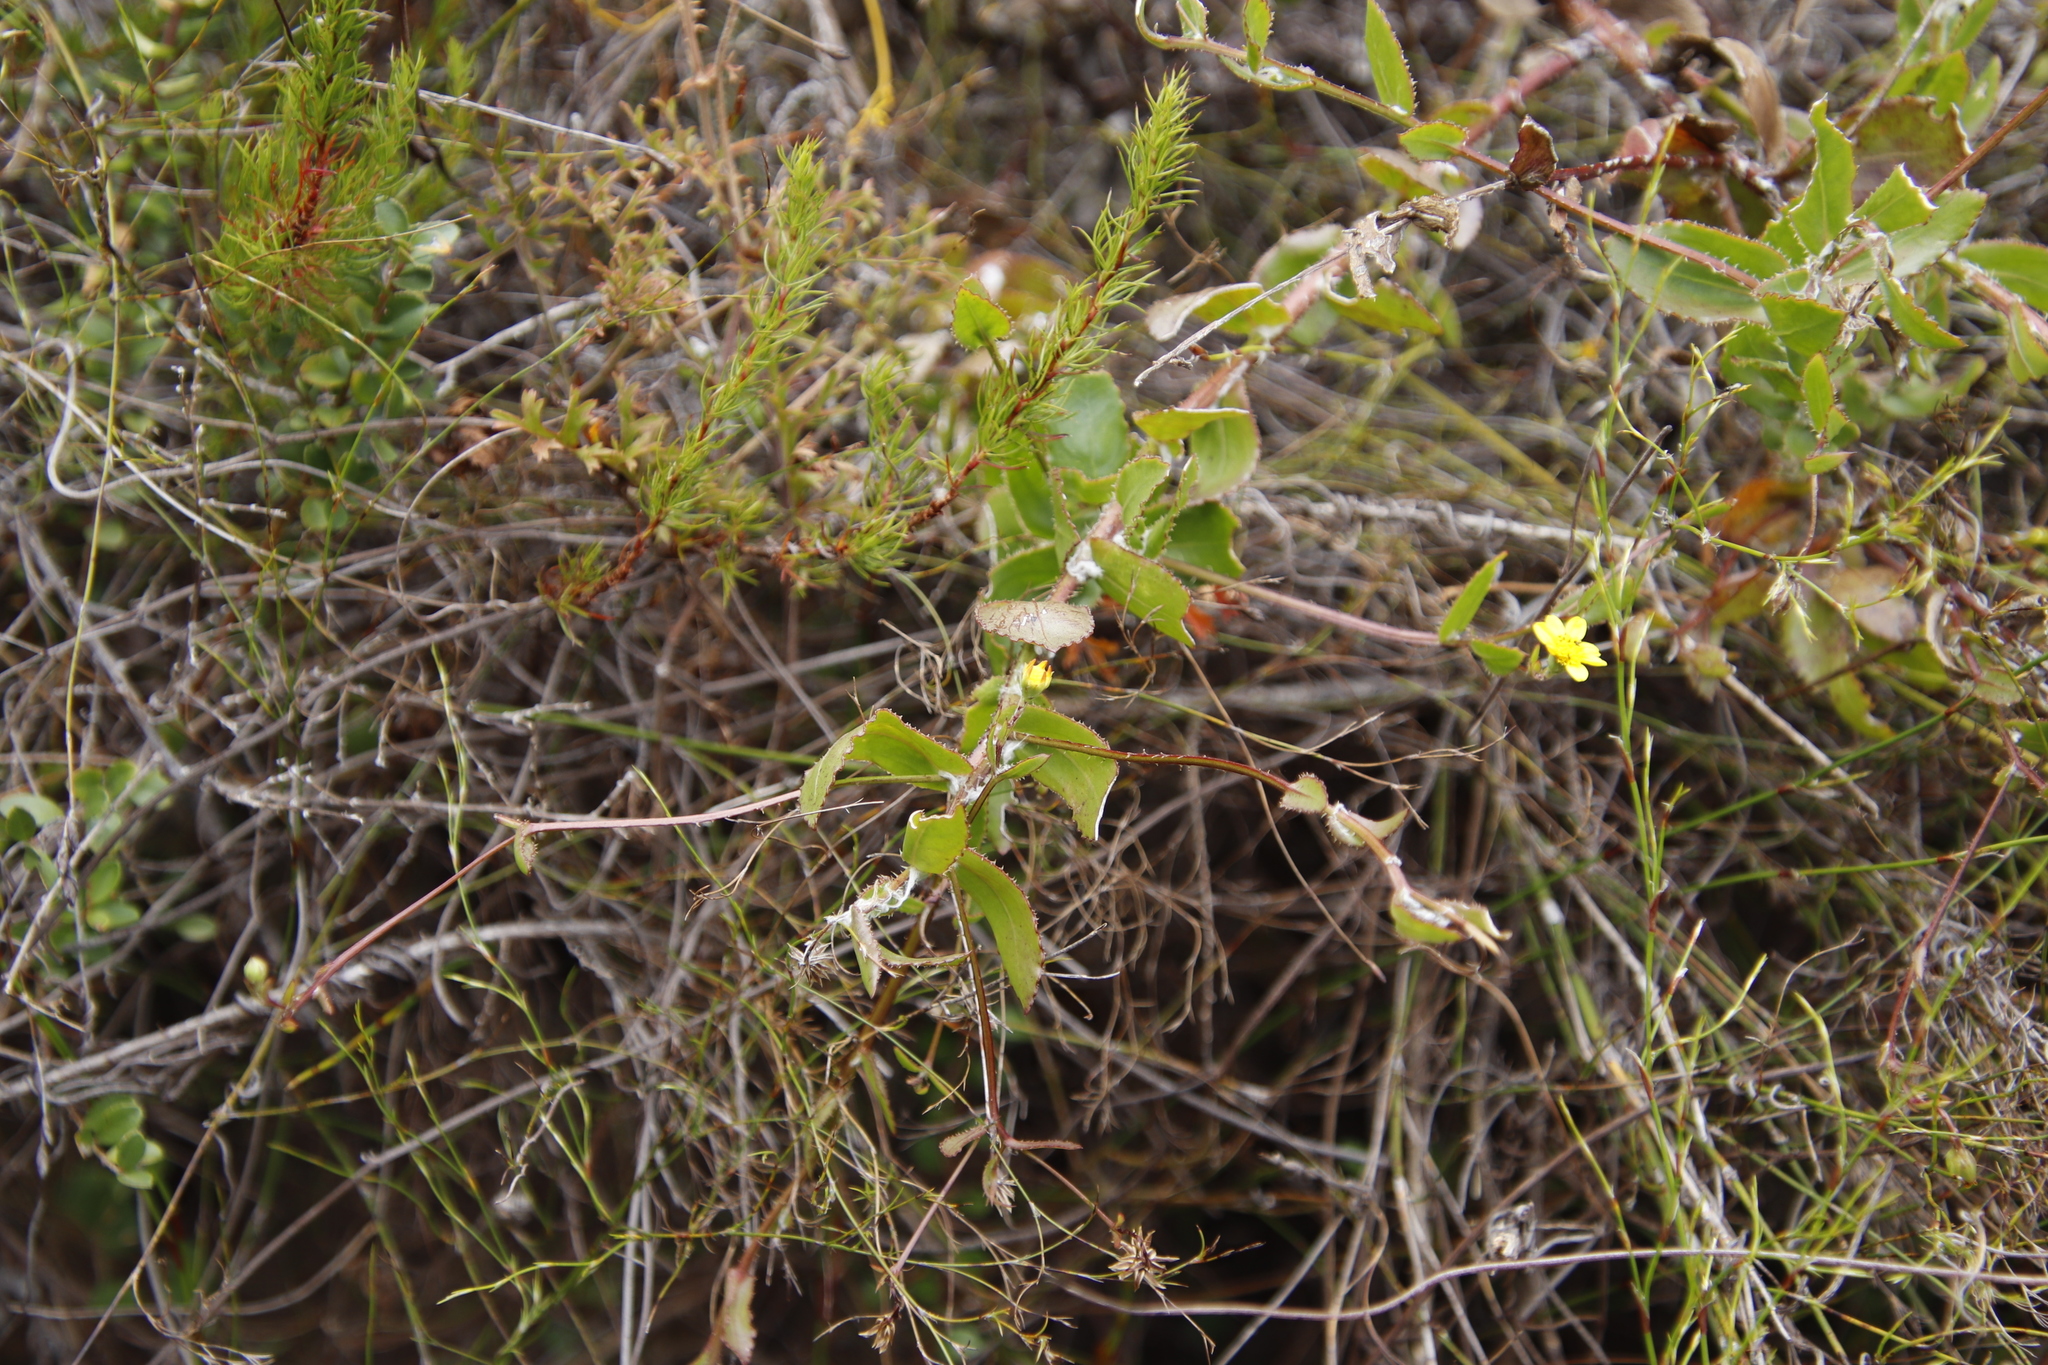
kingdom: Plantae
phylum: Tracheophyta
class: Magnoliopsida
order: Asterales
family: Asteraceae
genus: Osteospermum
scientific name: Osteospermum ciliatum
